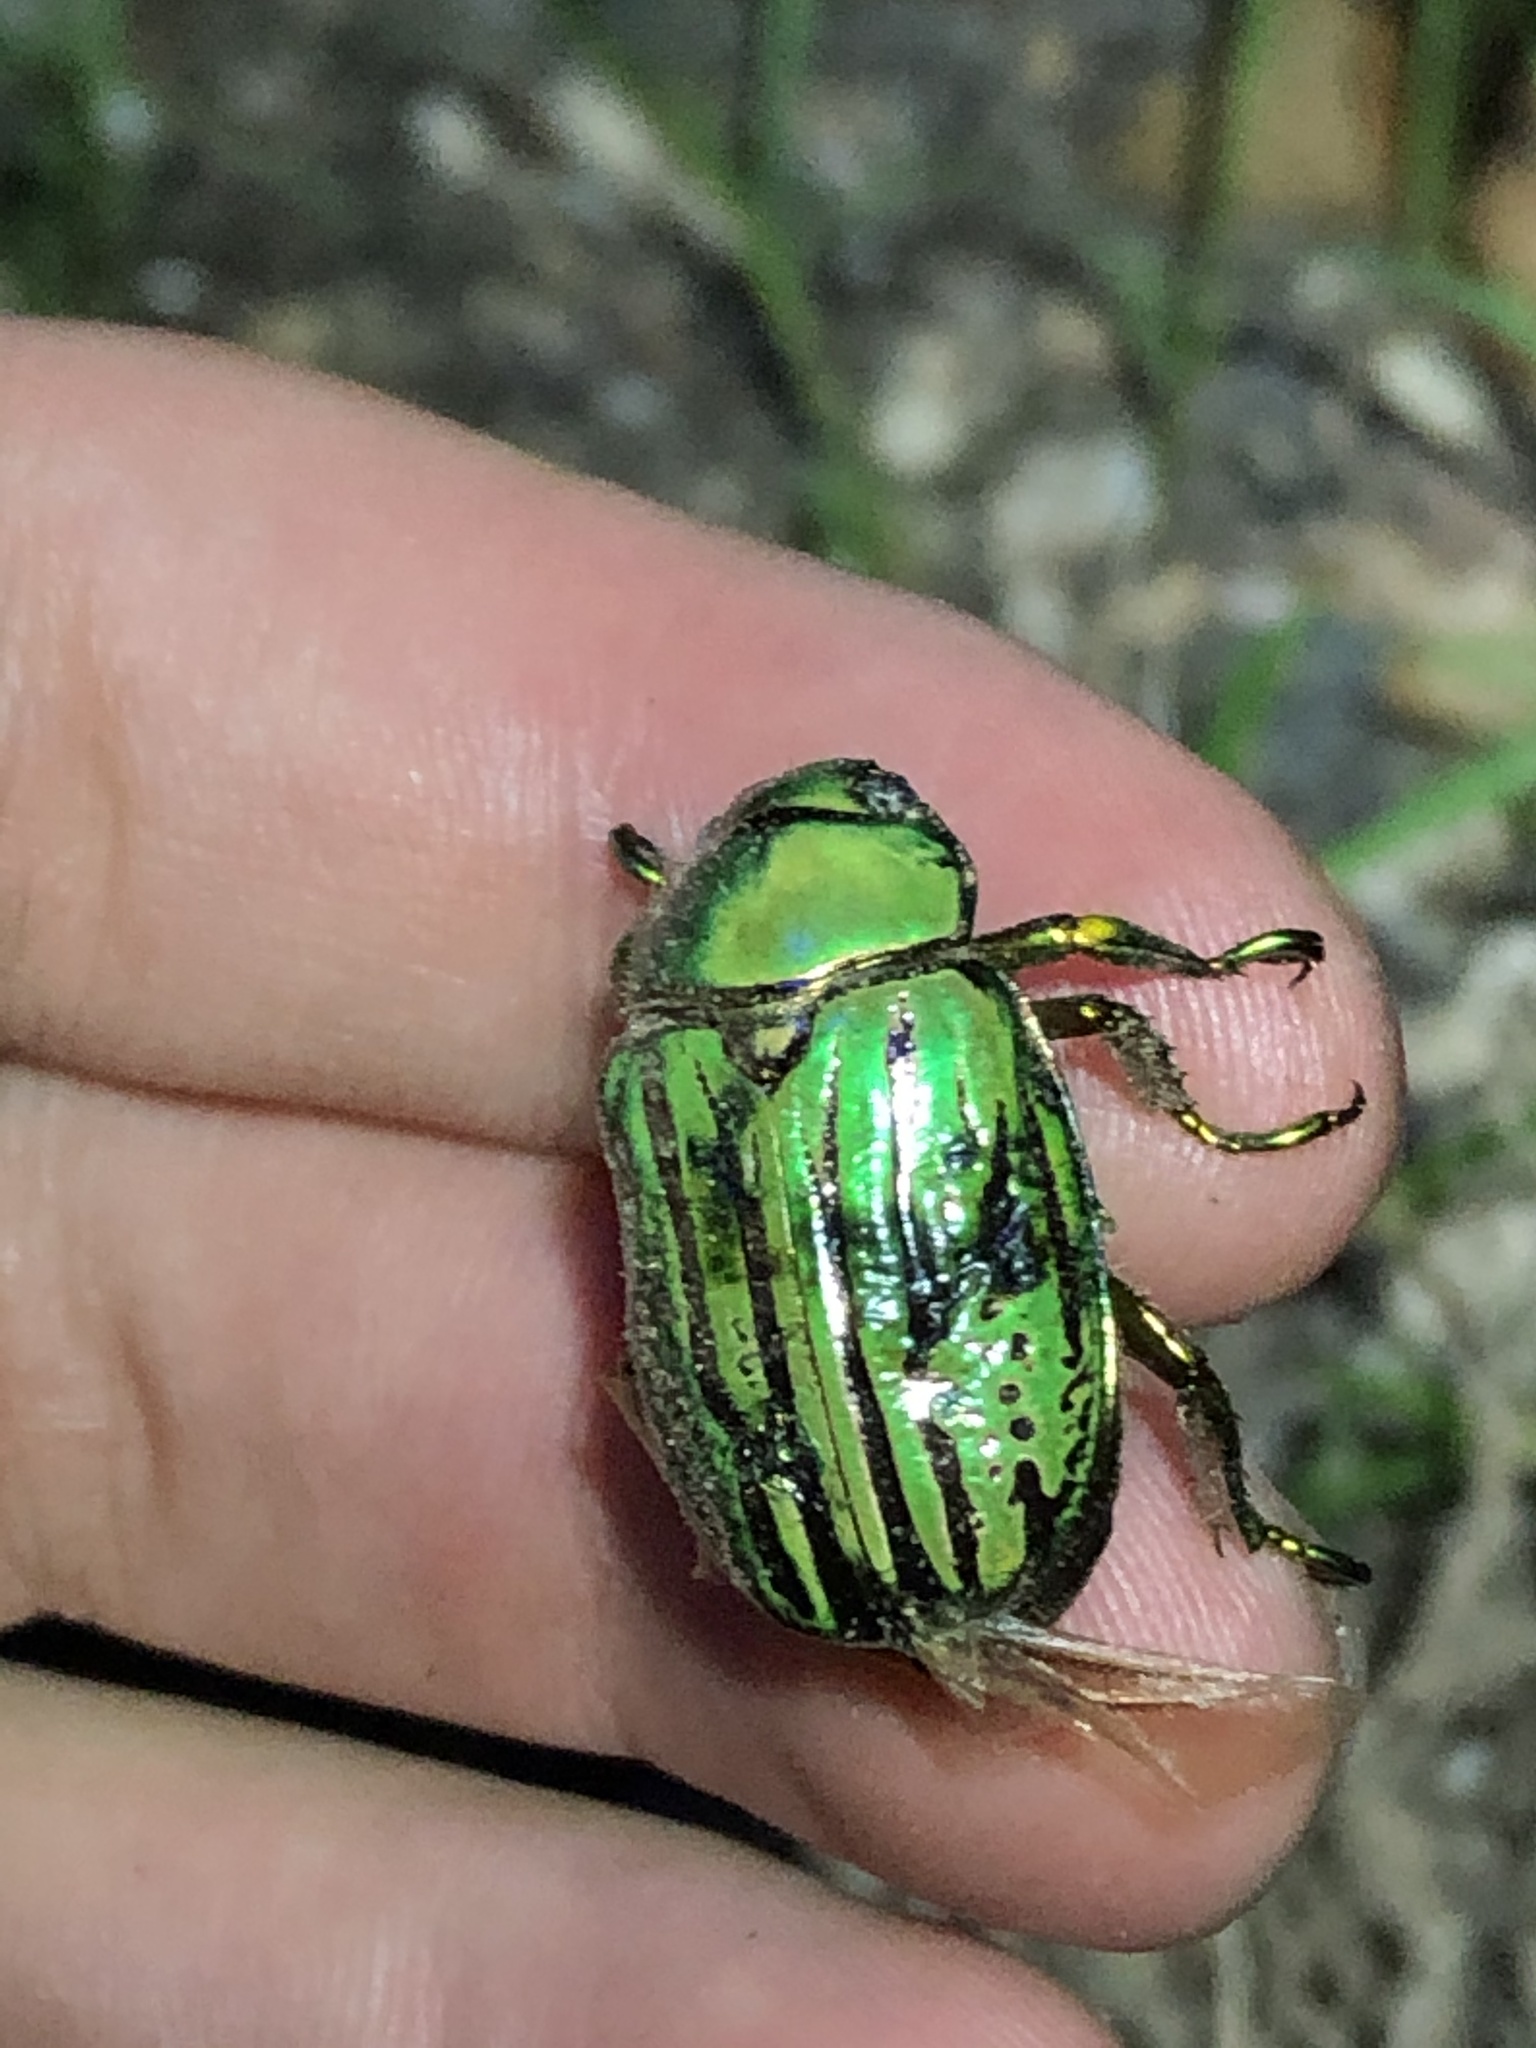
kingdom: Animalia
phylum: Arthropoda
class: Insecta
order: Coleoptera
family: Scarabaeidae
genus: Chrysina
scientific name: Chrysina gloriosa
